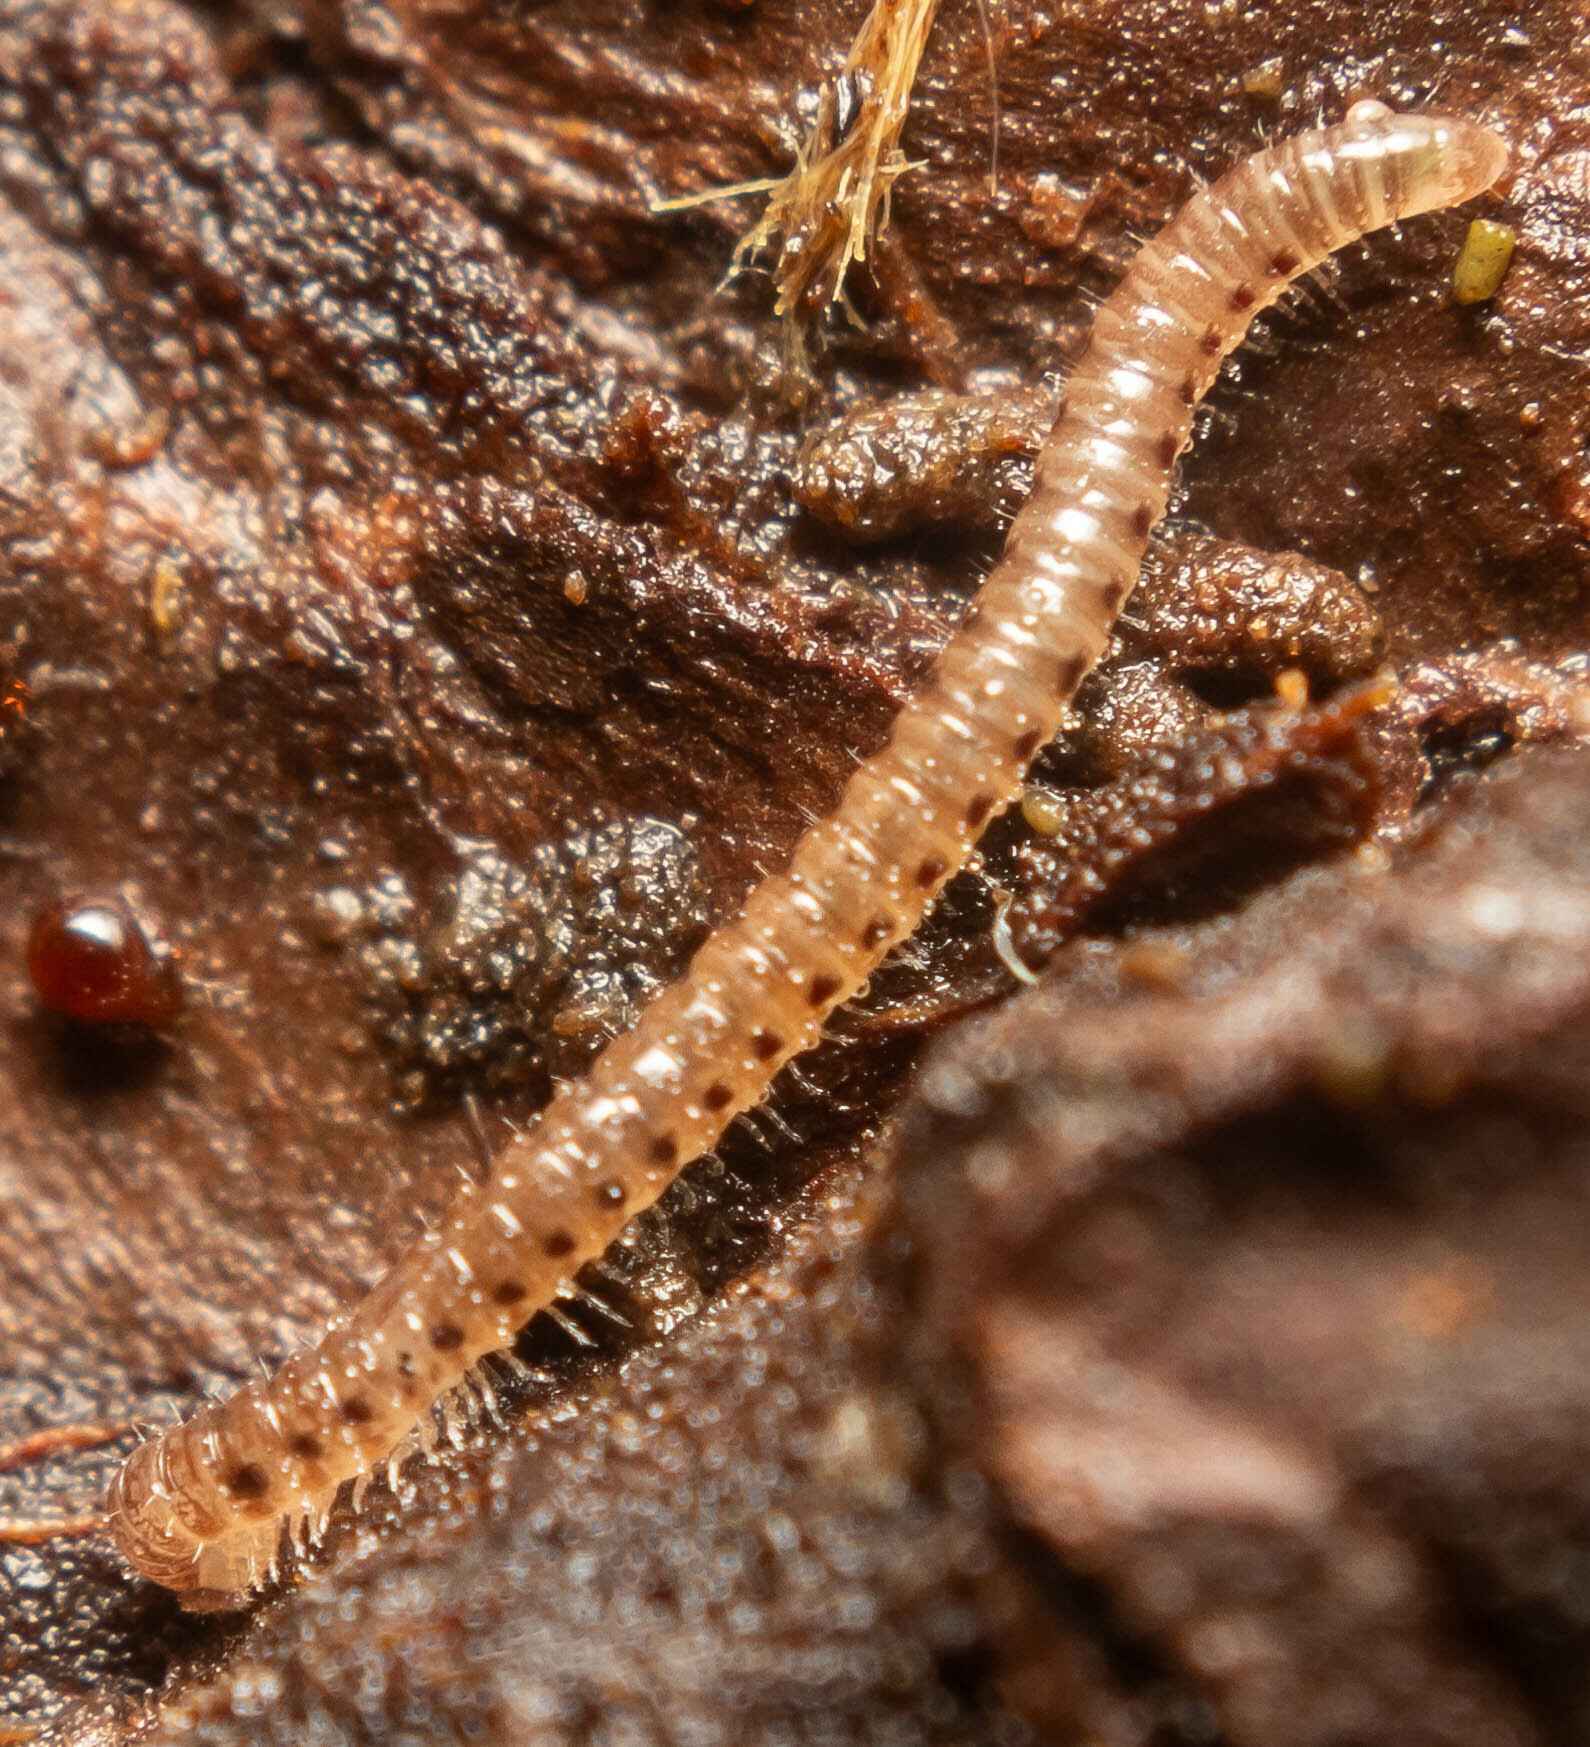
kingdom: Animalia
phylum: Arthropoda
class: Diplopoda
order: Julida
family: Blaniulidae
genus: Proteroiulus
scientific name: Proteroiulus fuscus
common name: Millipede
